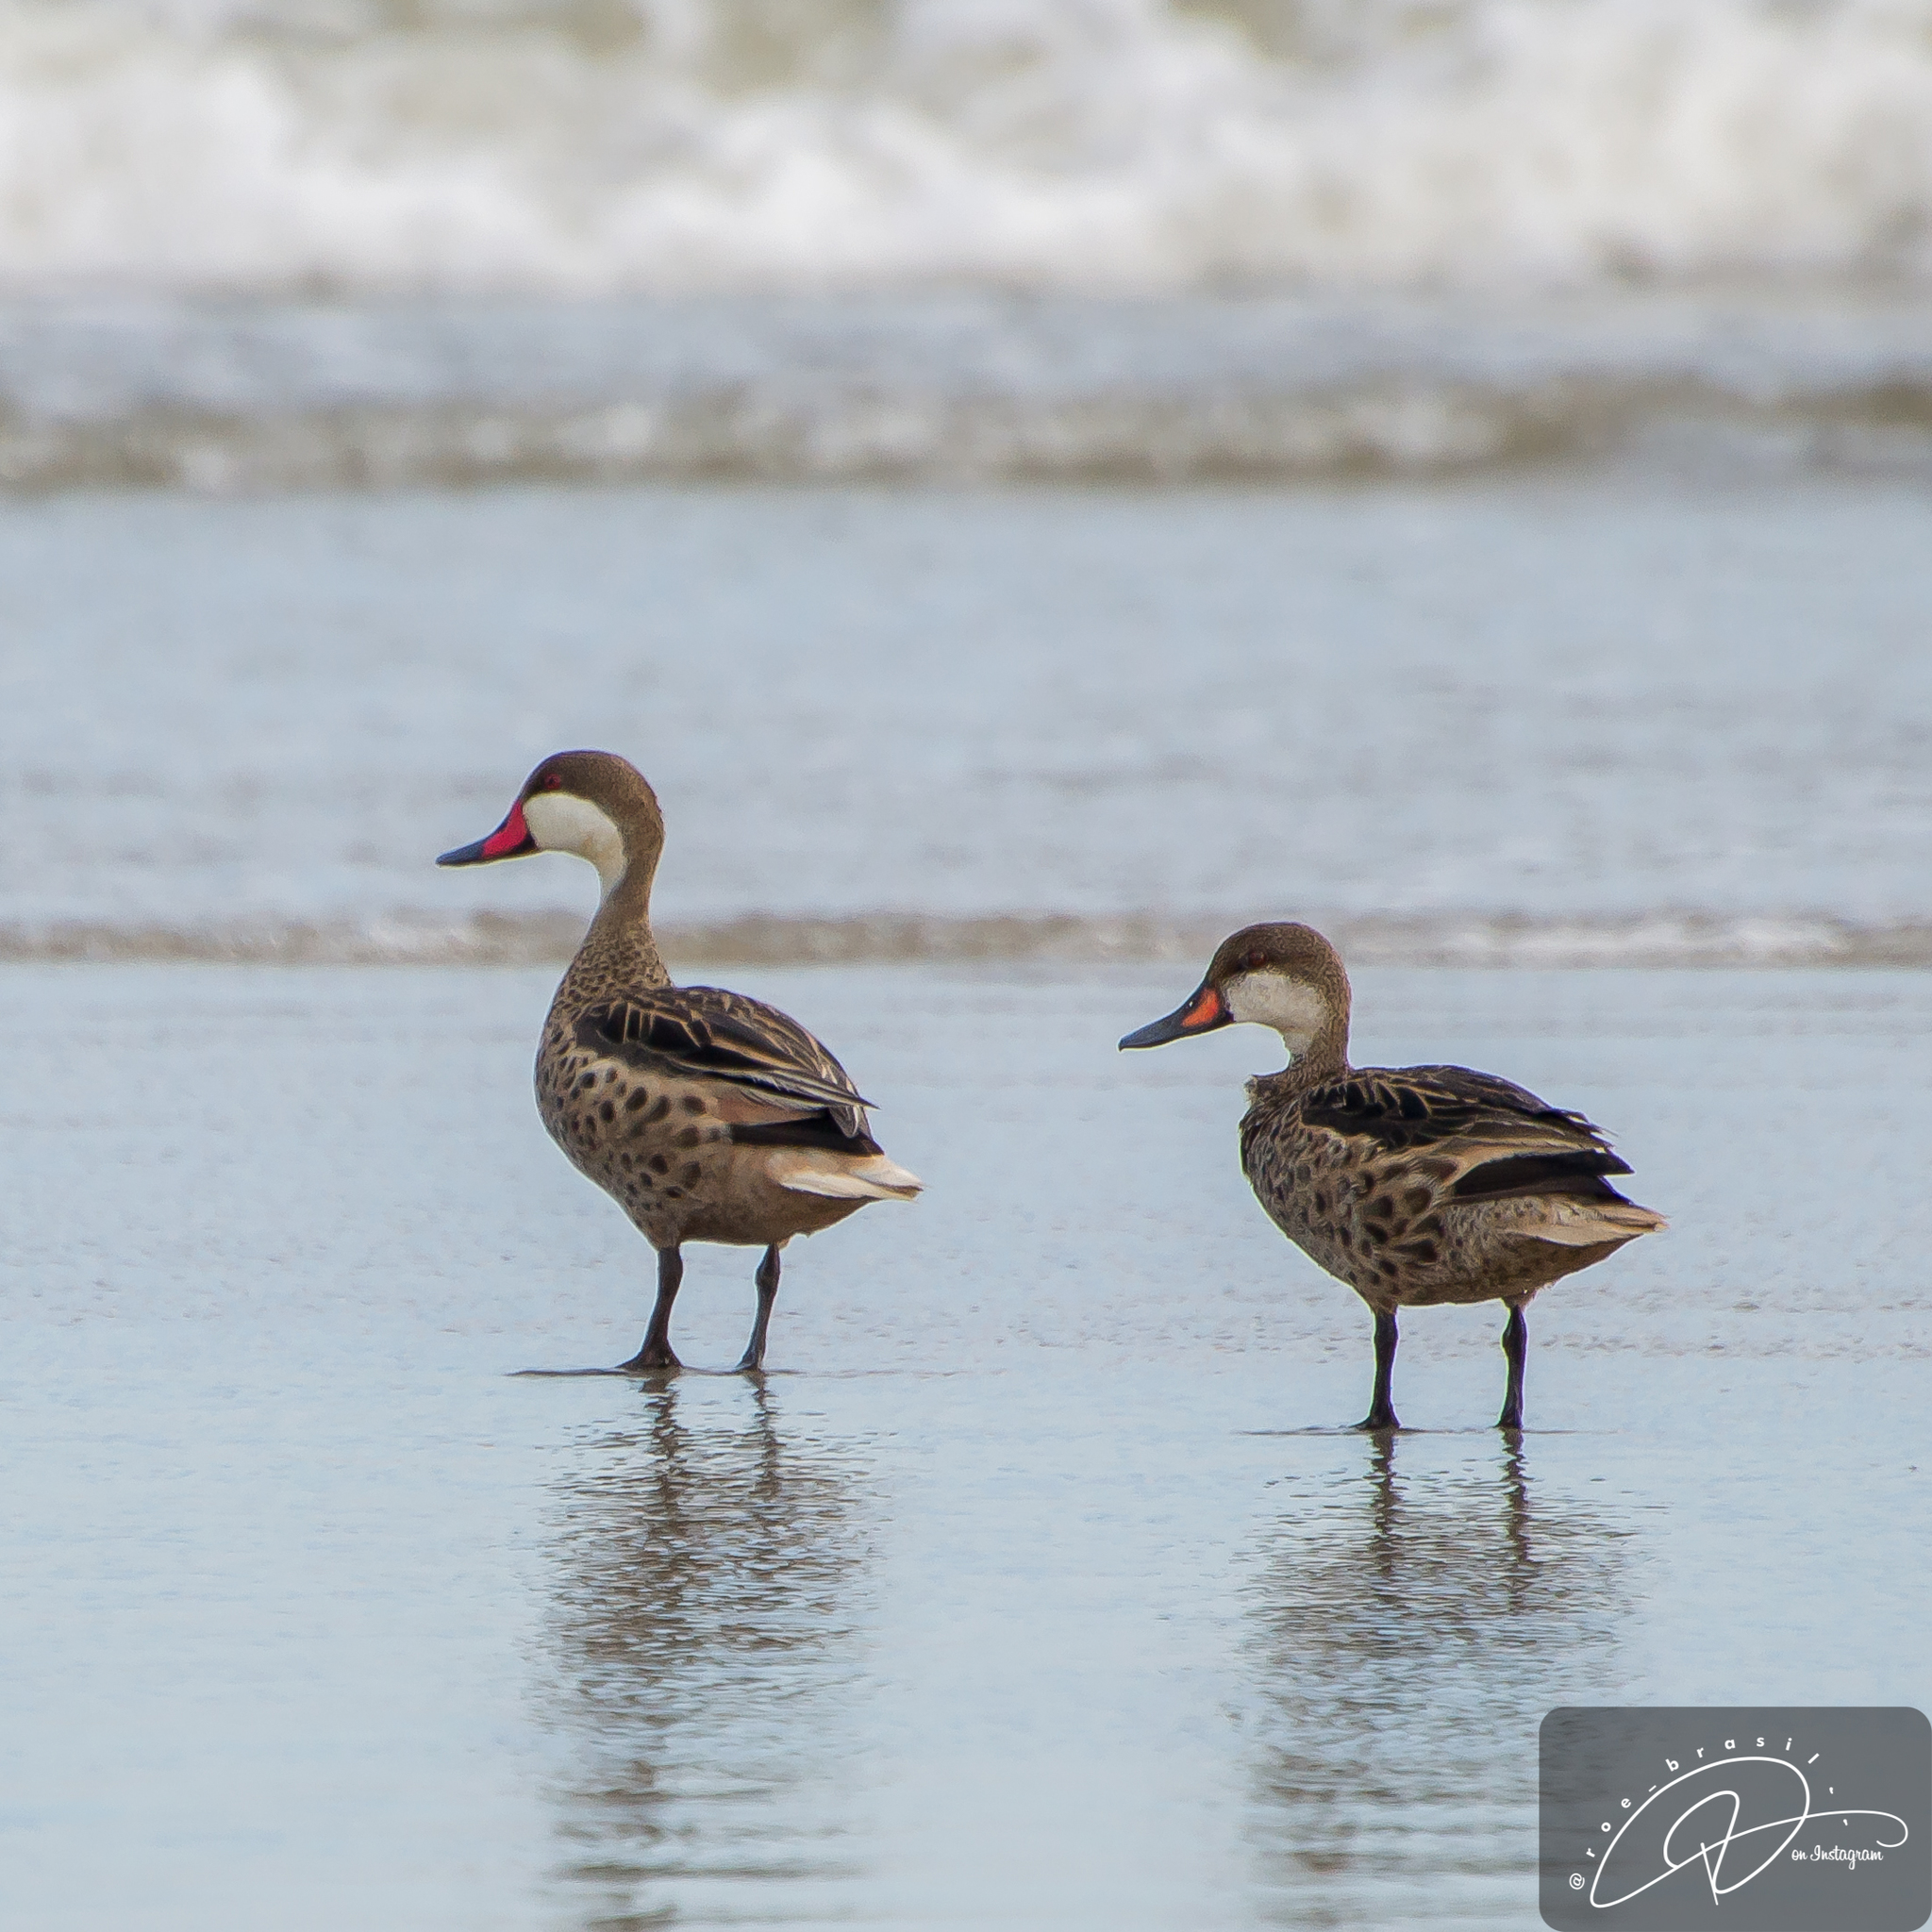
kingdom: Animalia
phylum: Chordata
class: Aves
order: Anseriformes
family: Anatidae
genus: Anas
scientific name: Anas bahamensis
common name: White-cheeked pintail
